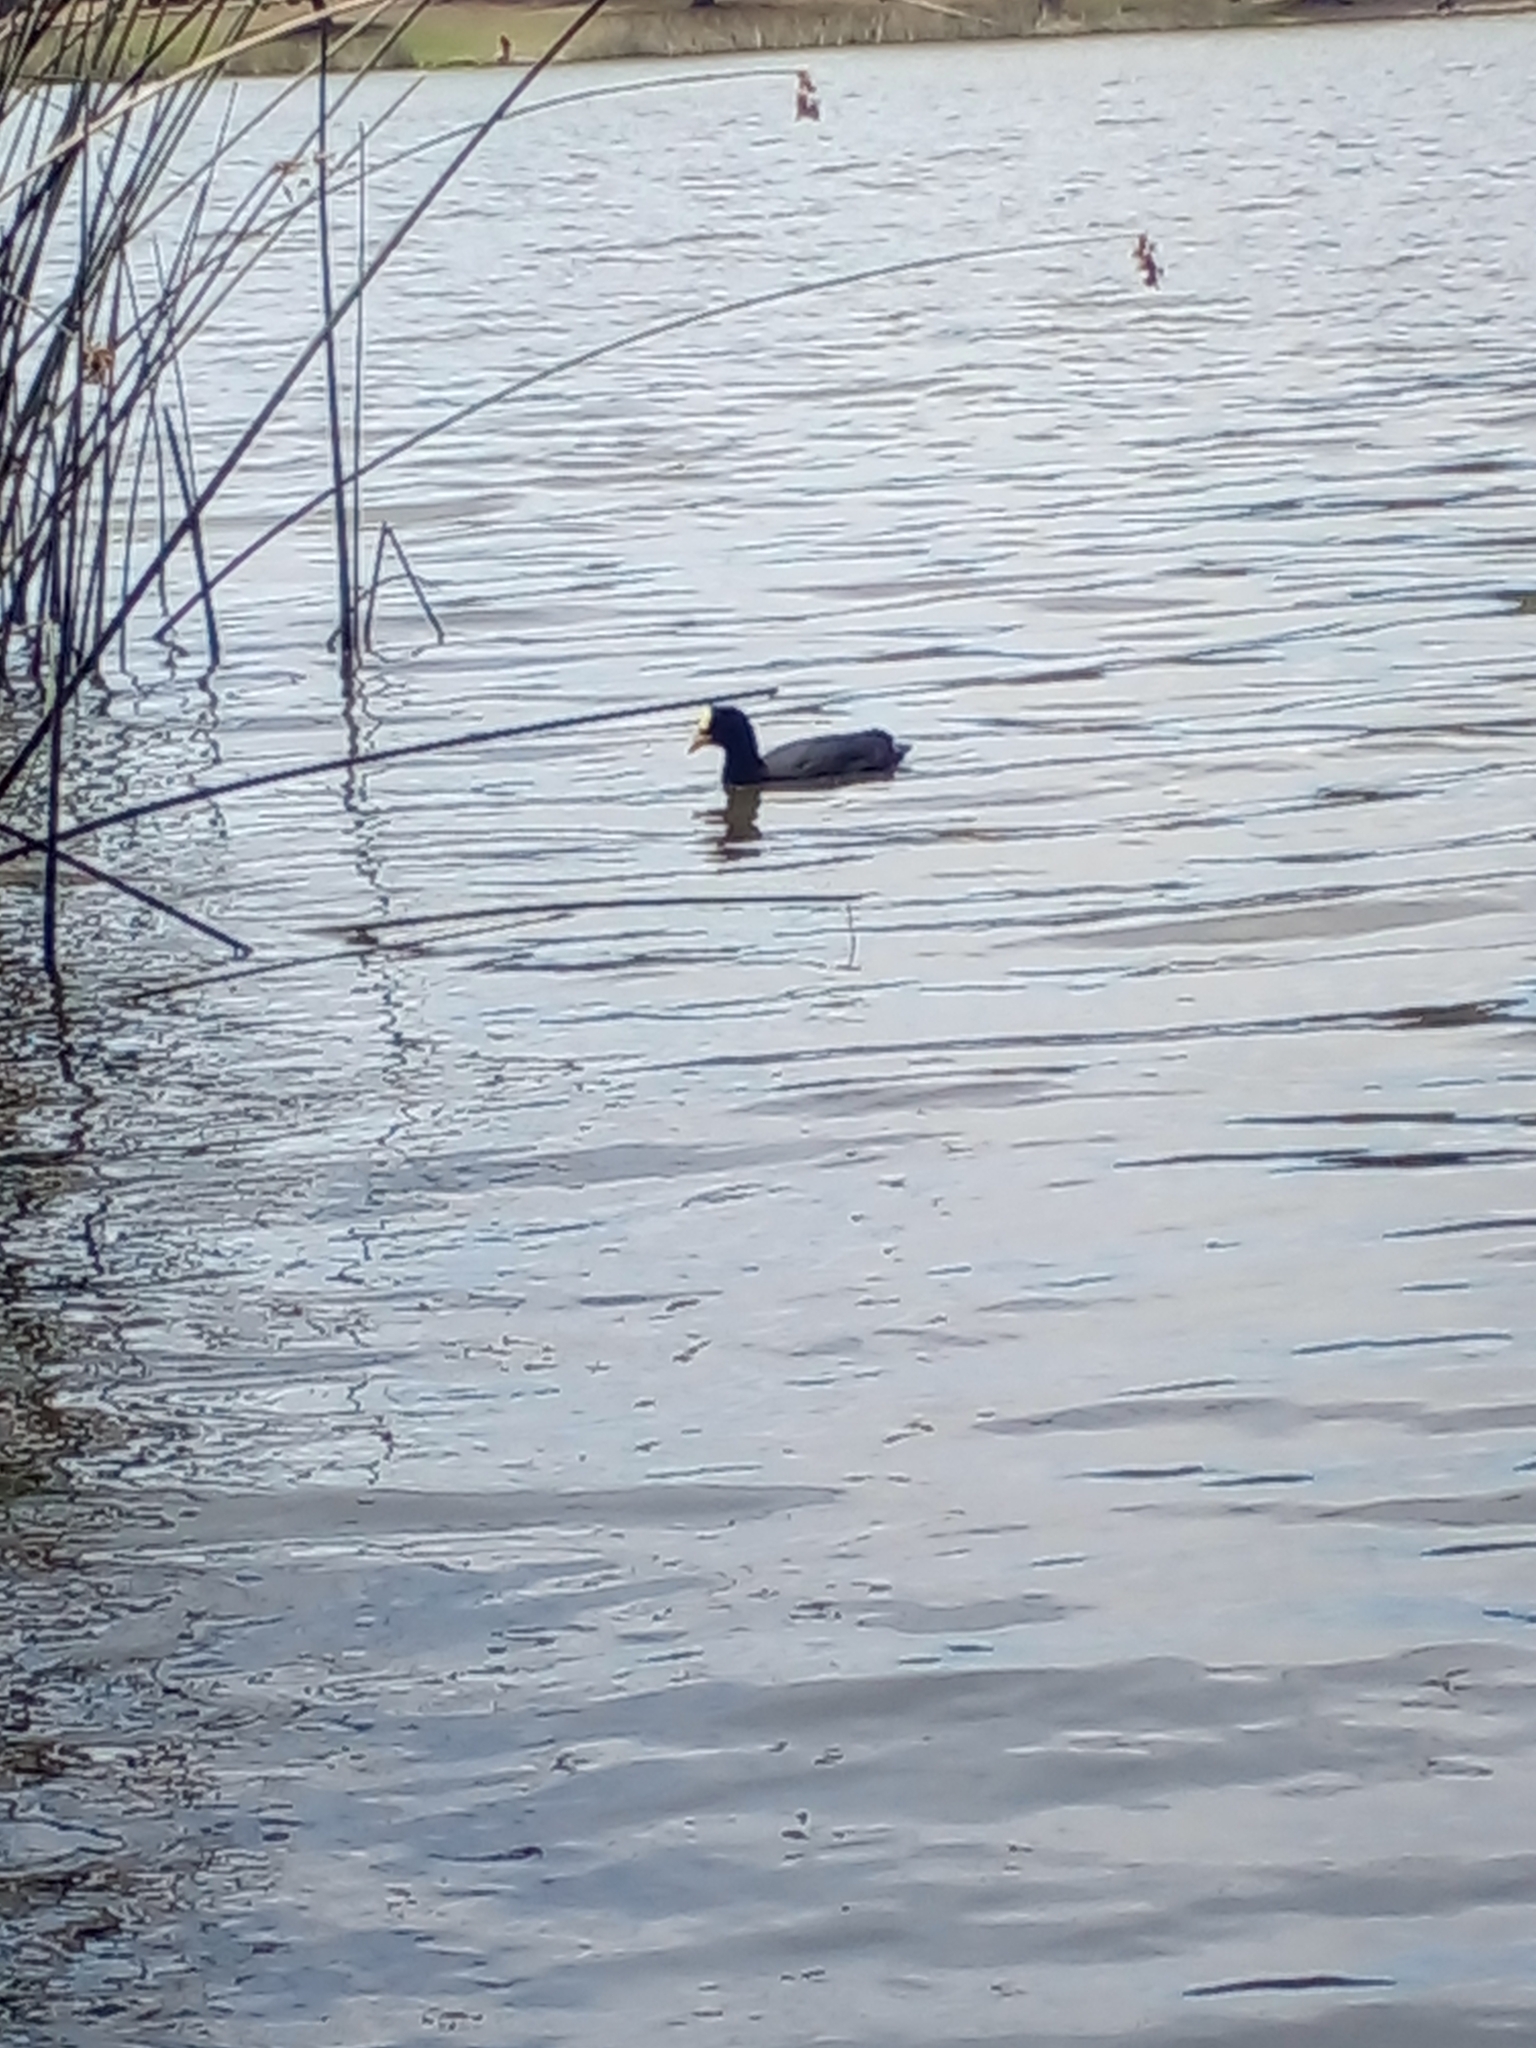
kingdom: Animalia
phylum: Chordata
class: Aves
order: Gruiformes
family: Rallidae
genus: Fulica
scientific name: Fulica armillata
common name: Red-gartered coot
